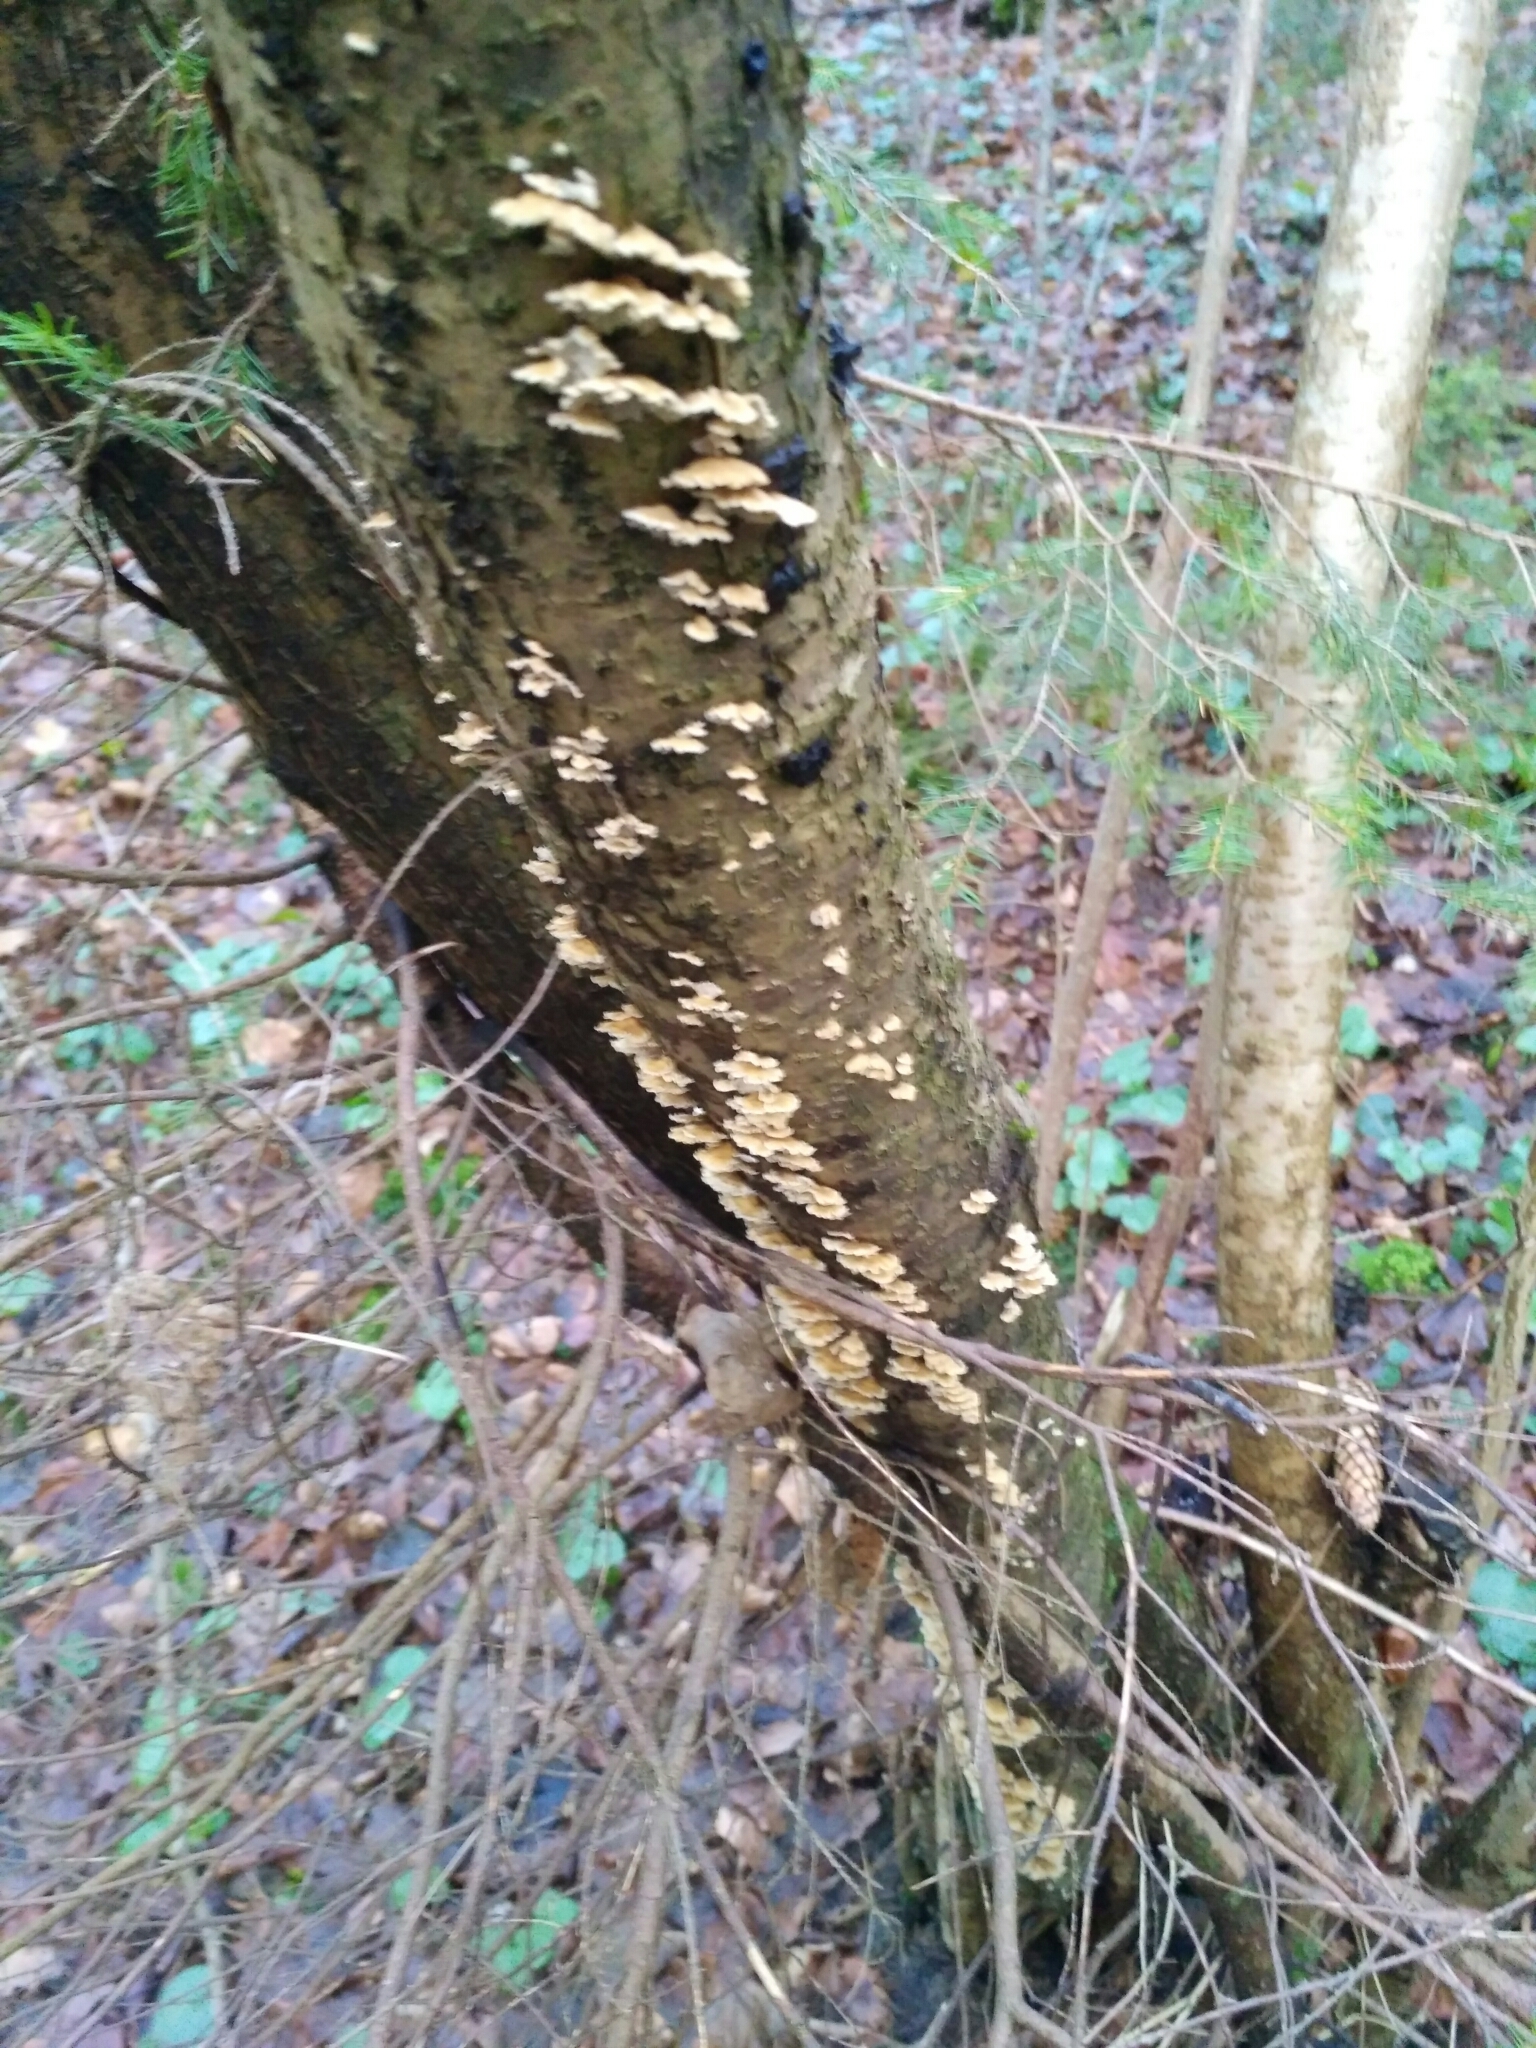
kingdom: Fungi
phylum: Basidiomycota
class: Agaricomycetes
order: Amylocorticiales
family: Amylocorticiaceae
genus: Plicaturopsis
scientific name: Plicaturopsis crispa
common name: Crimped gill
